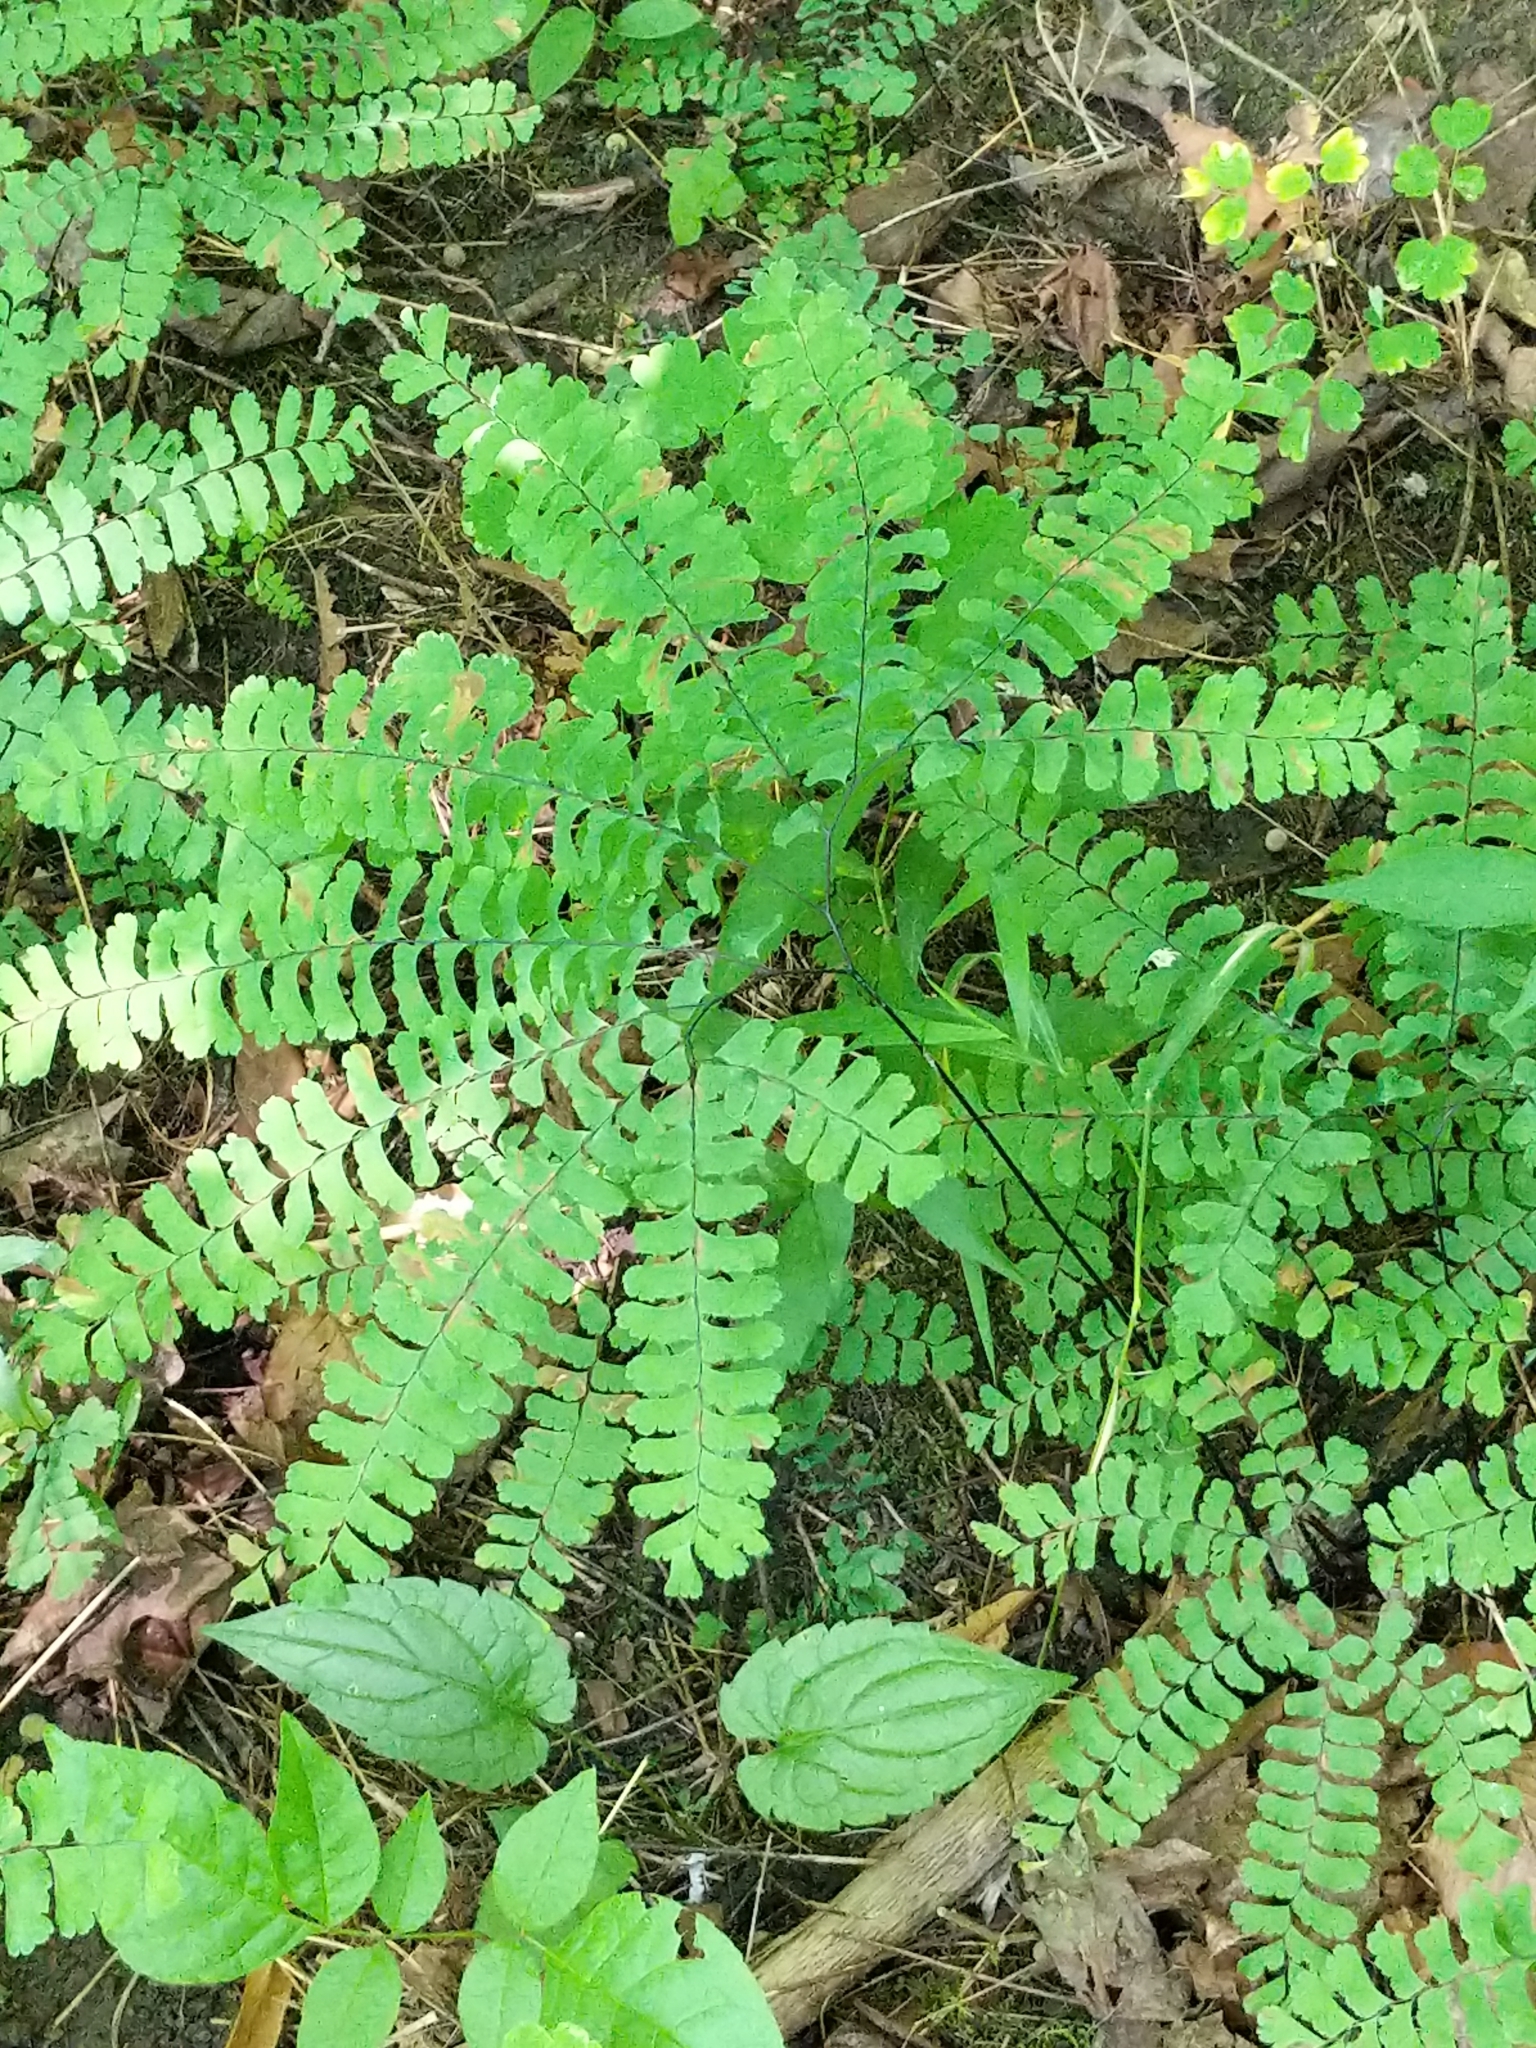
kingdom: Plantae
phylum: Tracheophyta
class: Polypodiopsida
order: Polypodiales
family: Pteridaceae
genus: Adiantum
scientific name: Adiantum pedatum
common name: Five-finger fern
